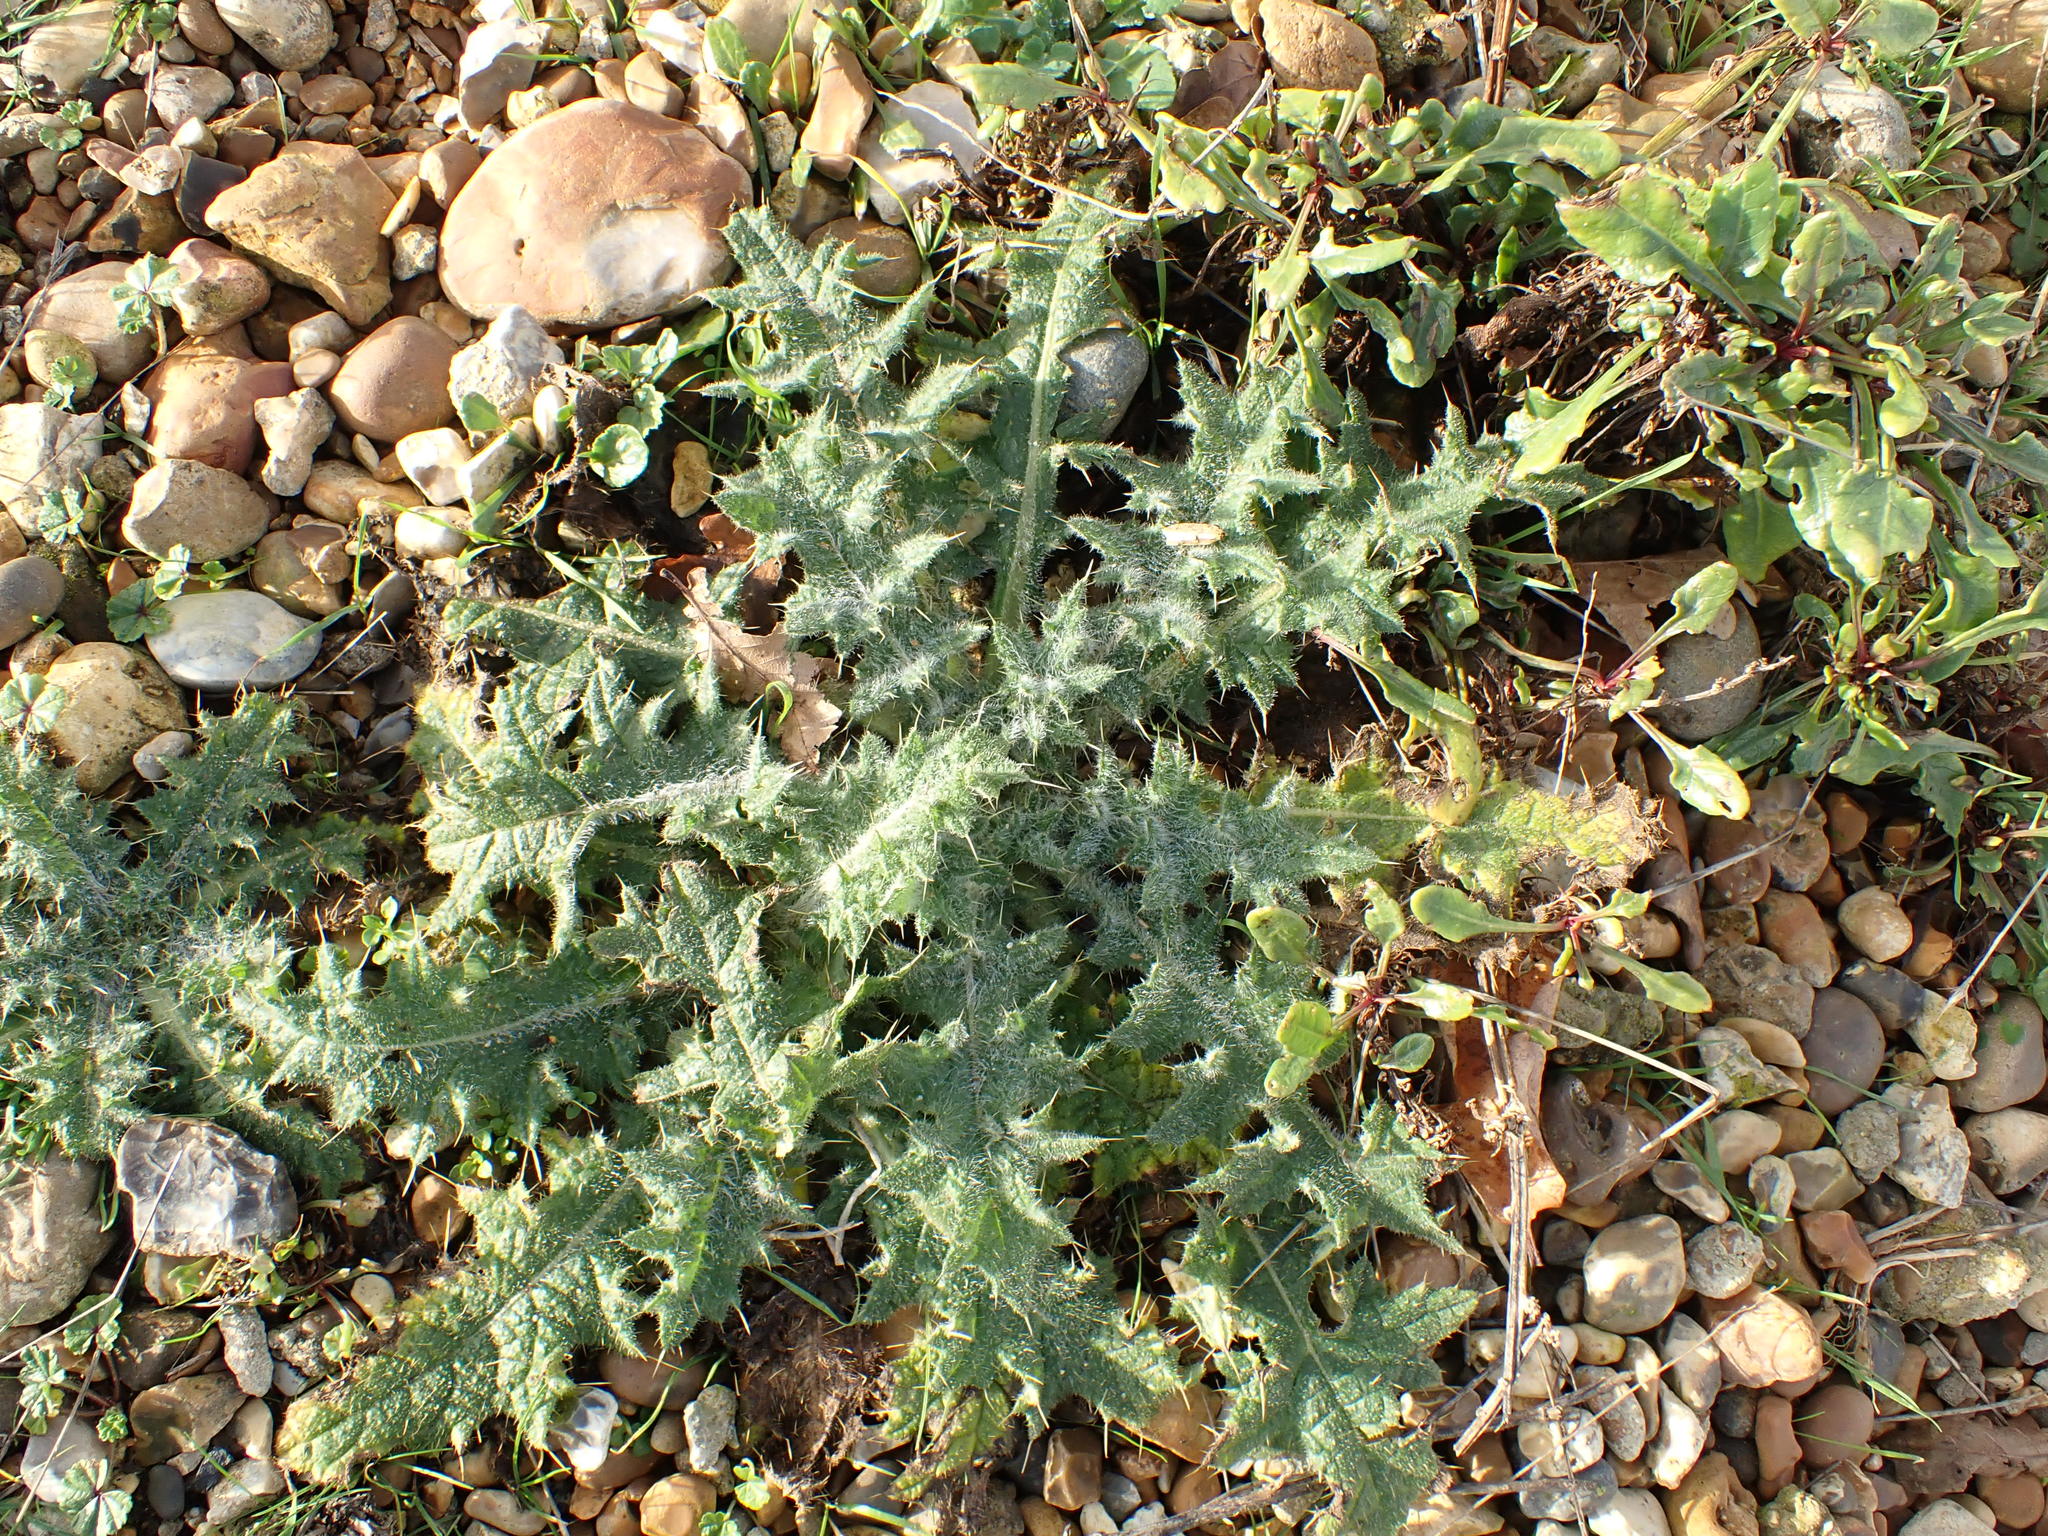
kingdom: Plantae
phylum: Tracheophyta
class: Magnoliopsida
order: Asterales
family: Asteraceae
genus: Cirsium
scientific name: Cirsium vulgare
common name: Bull thistle
